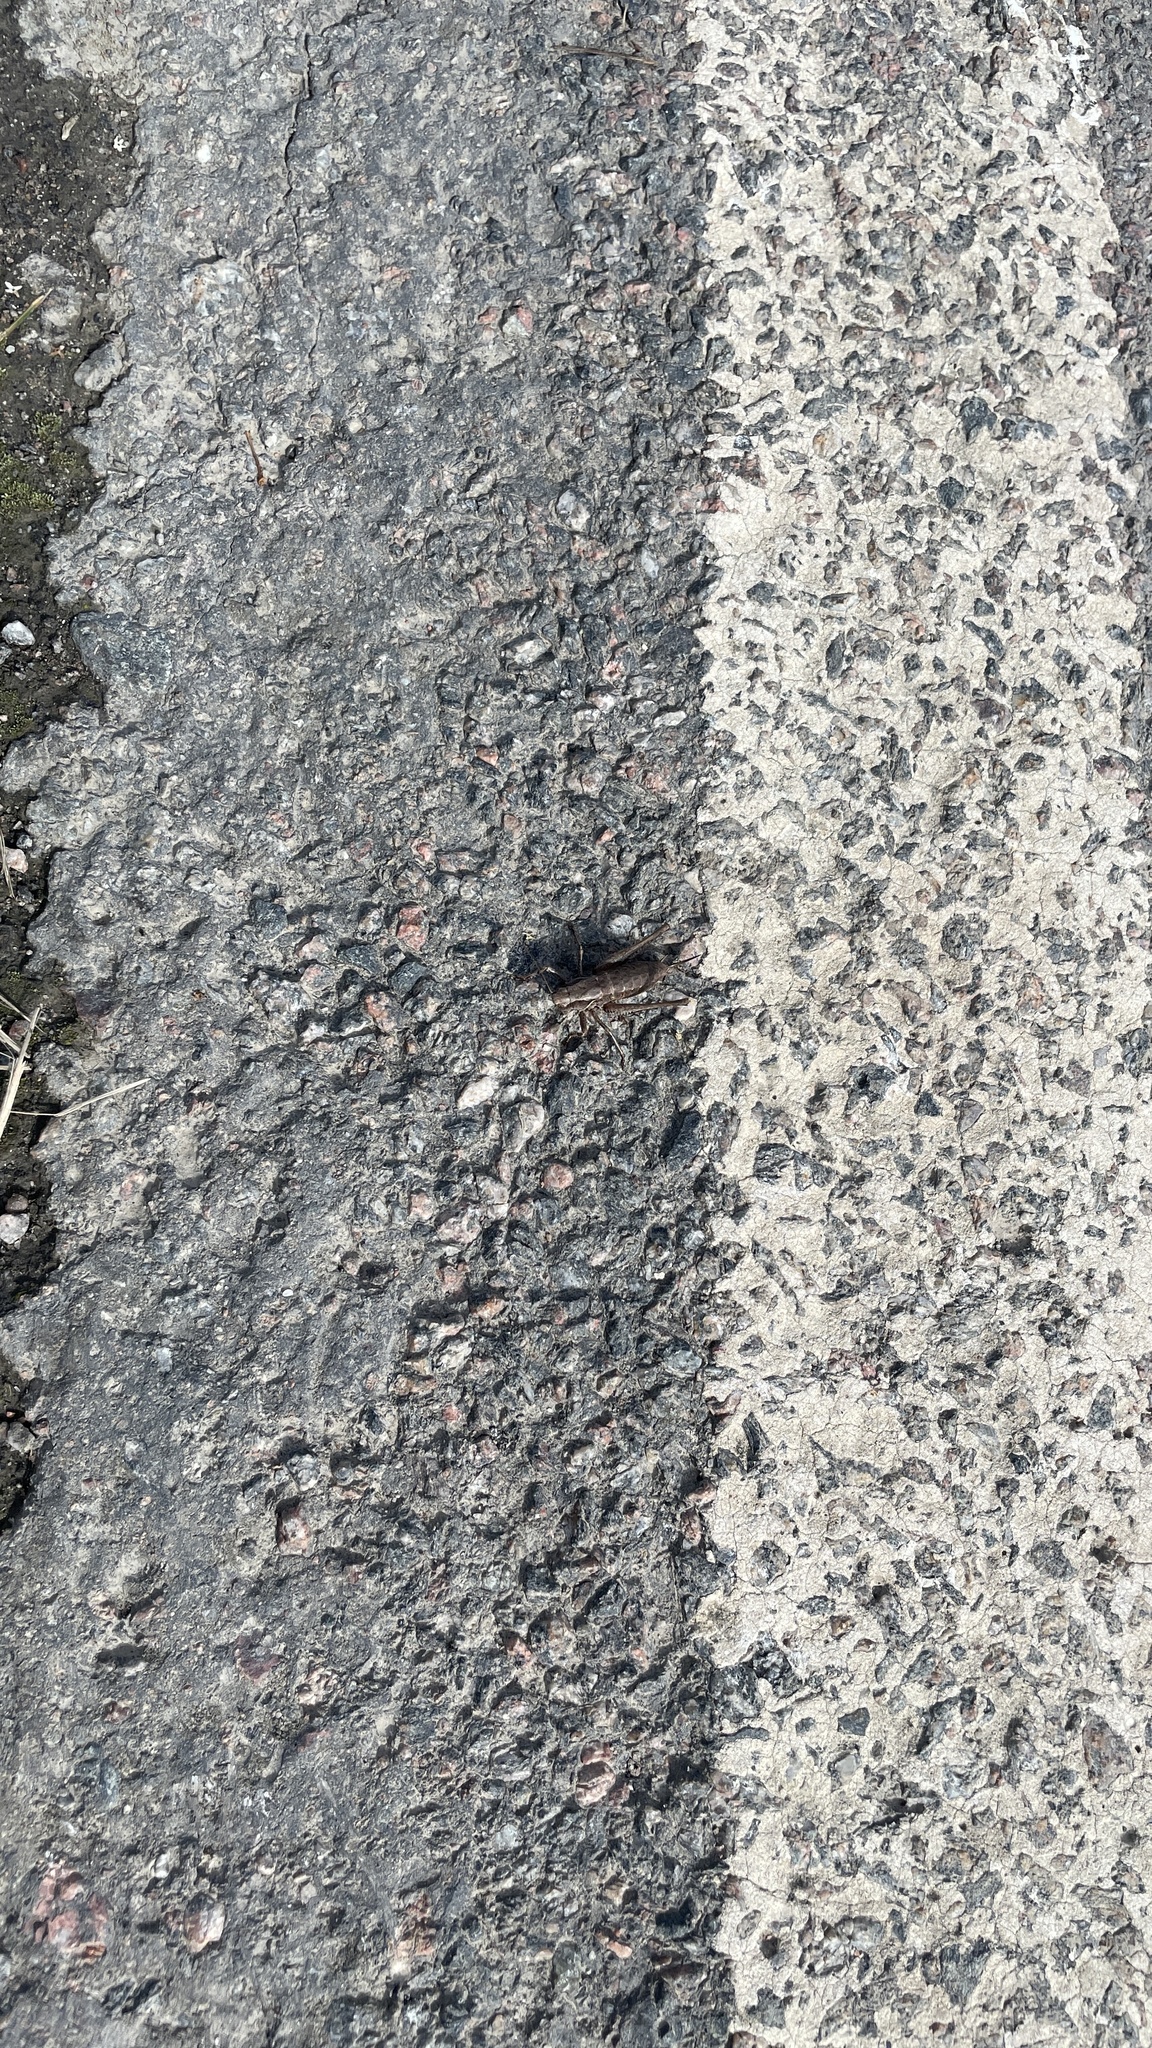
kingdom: Animalia
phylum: Arthropoda
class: Insecta
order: Orthoptera
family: Tettigoniidae
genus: Pholidoptera
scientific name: Pholidoptera griseoaptera
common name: Dark bush-cricket
